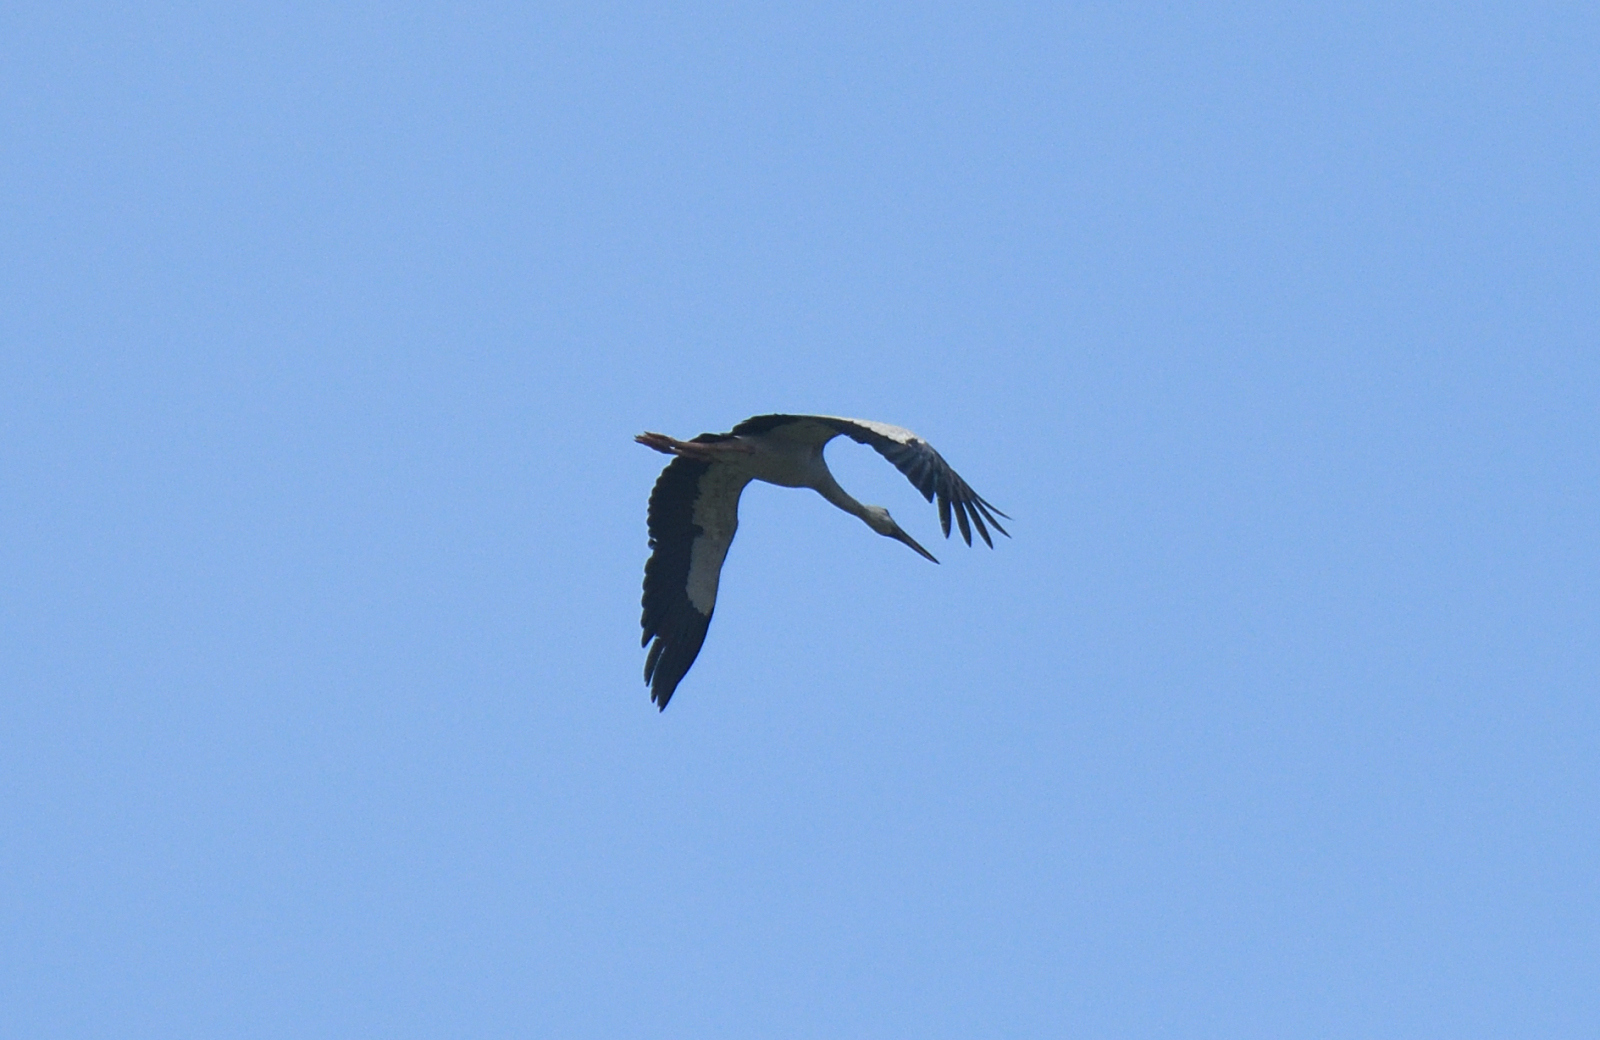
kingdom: Animalia
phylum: Chordata
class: Aves
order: Ciconiiformes
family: Ciconiidae
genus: Anastomus
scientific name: Anastomus oscitans
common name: Asian openbill
